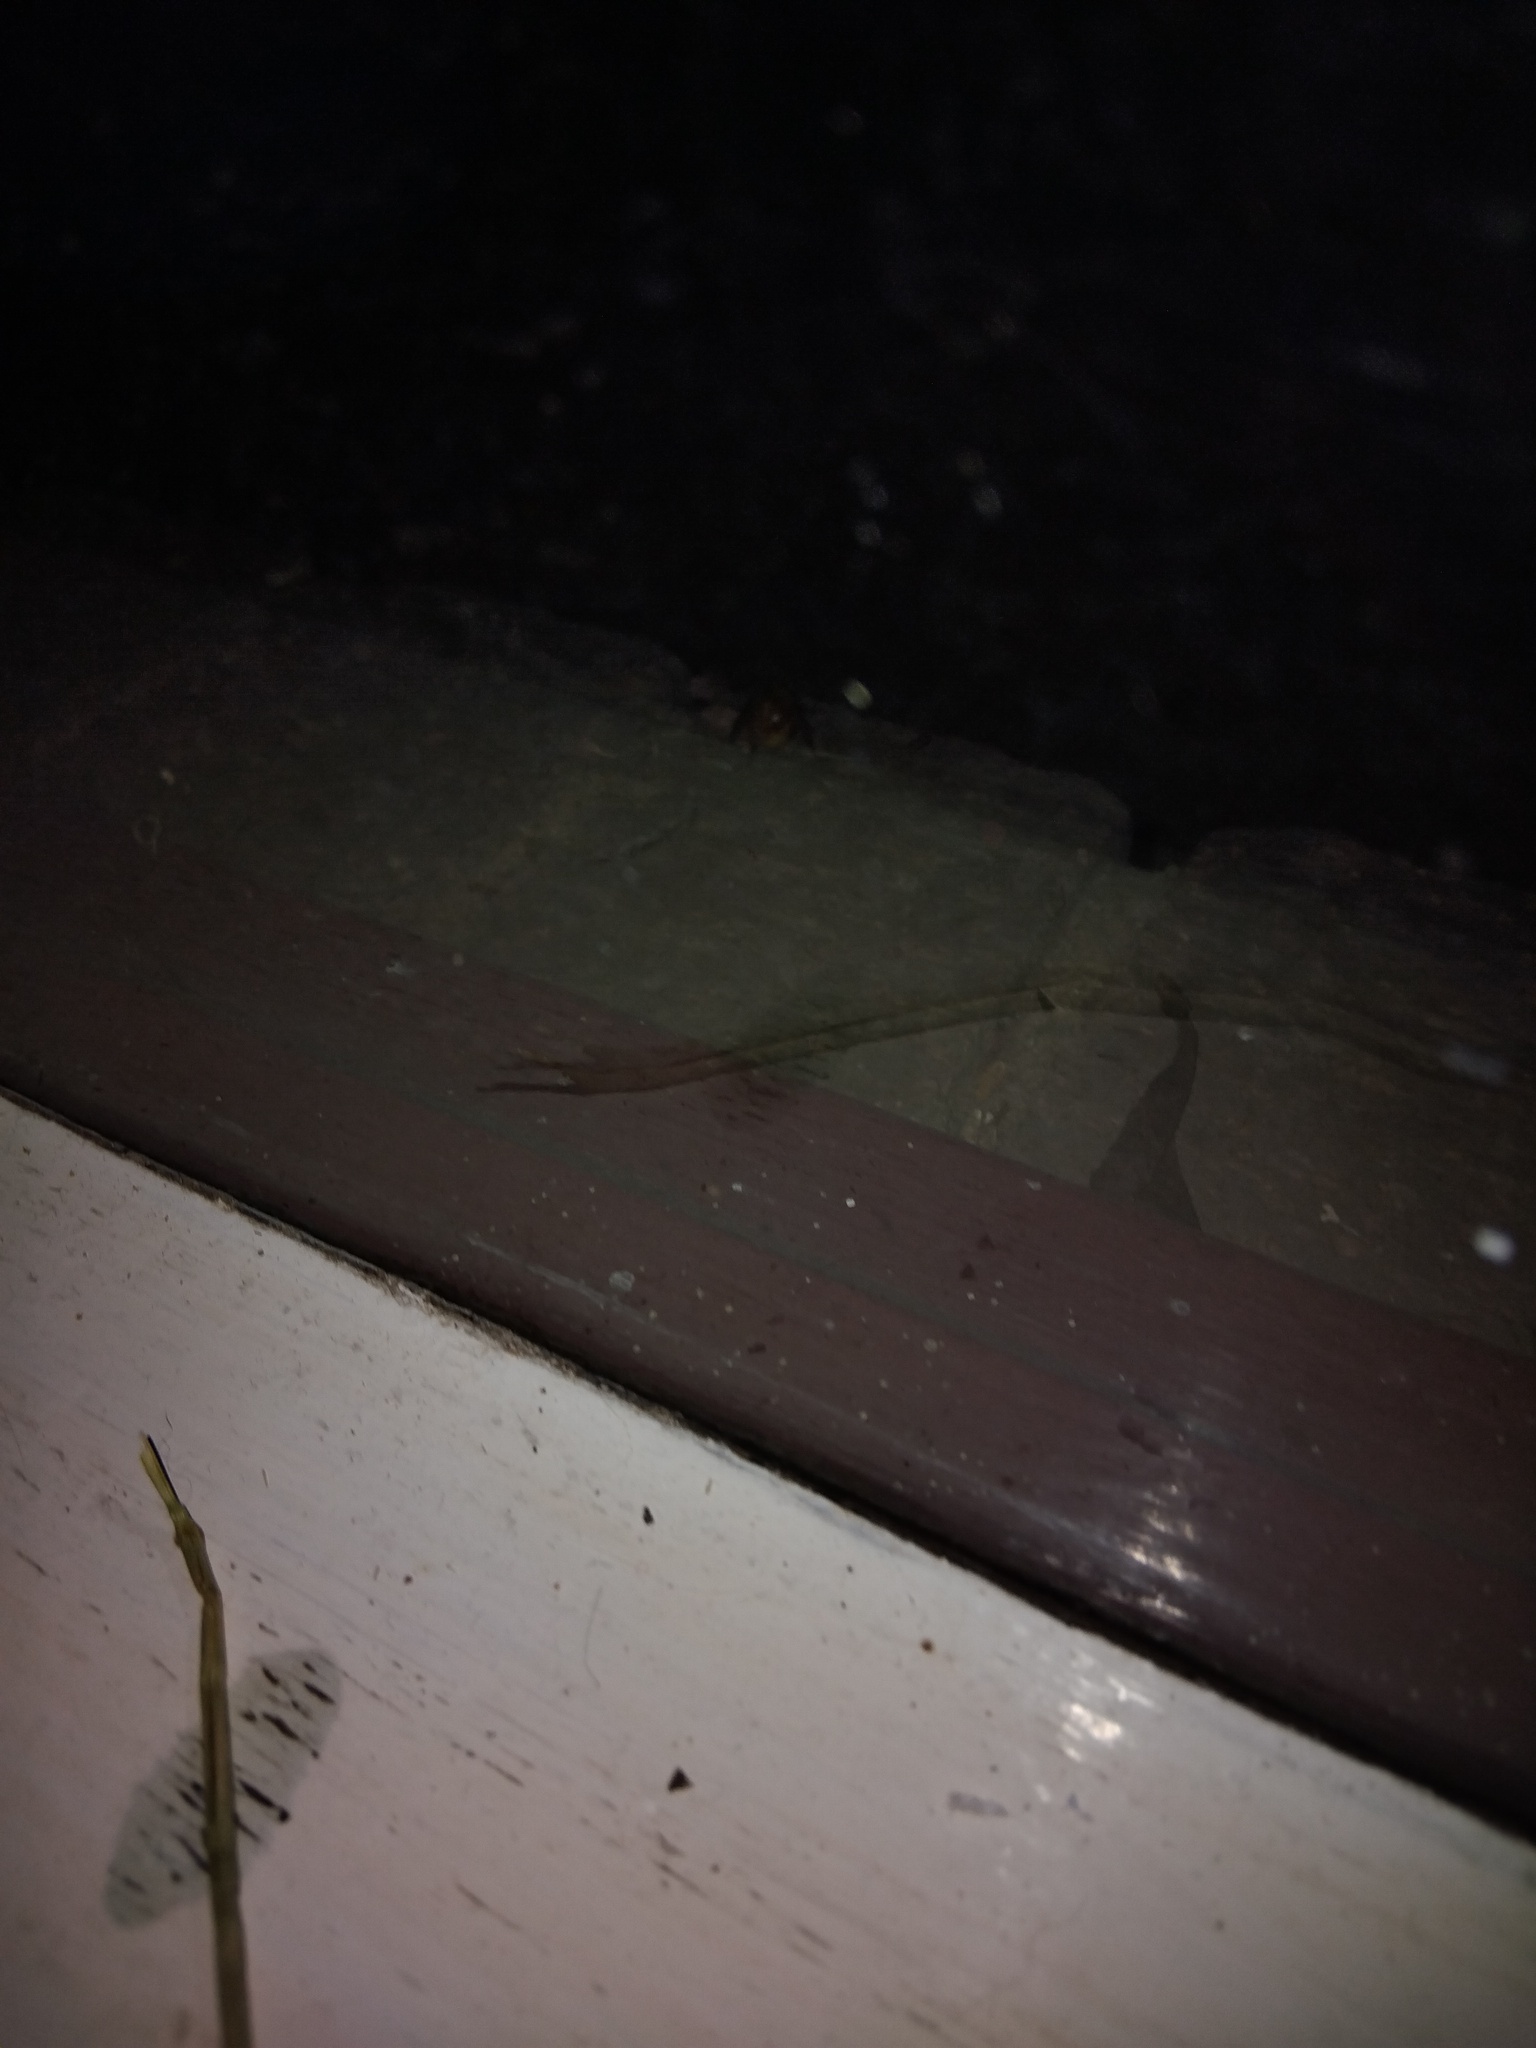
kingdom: Animalia
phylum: Arthropoda
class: Insecta
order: Coleoptera
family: Scarabaeidae
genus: Cyclocephala
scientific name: Cyclocephala signaticollis
